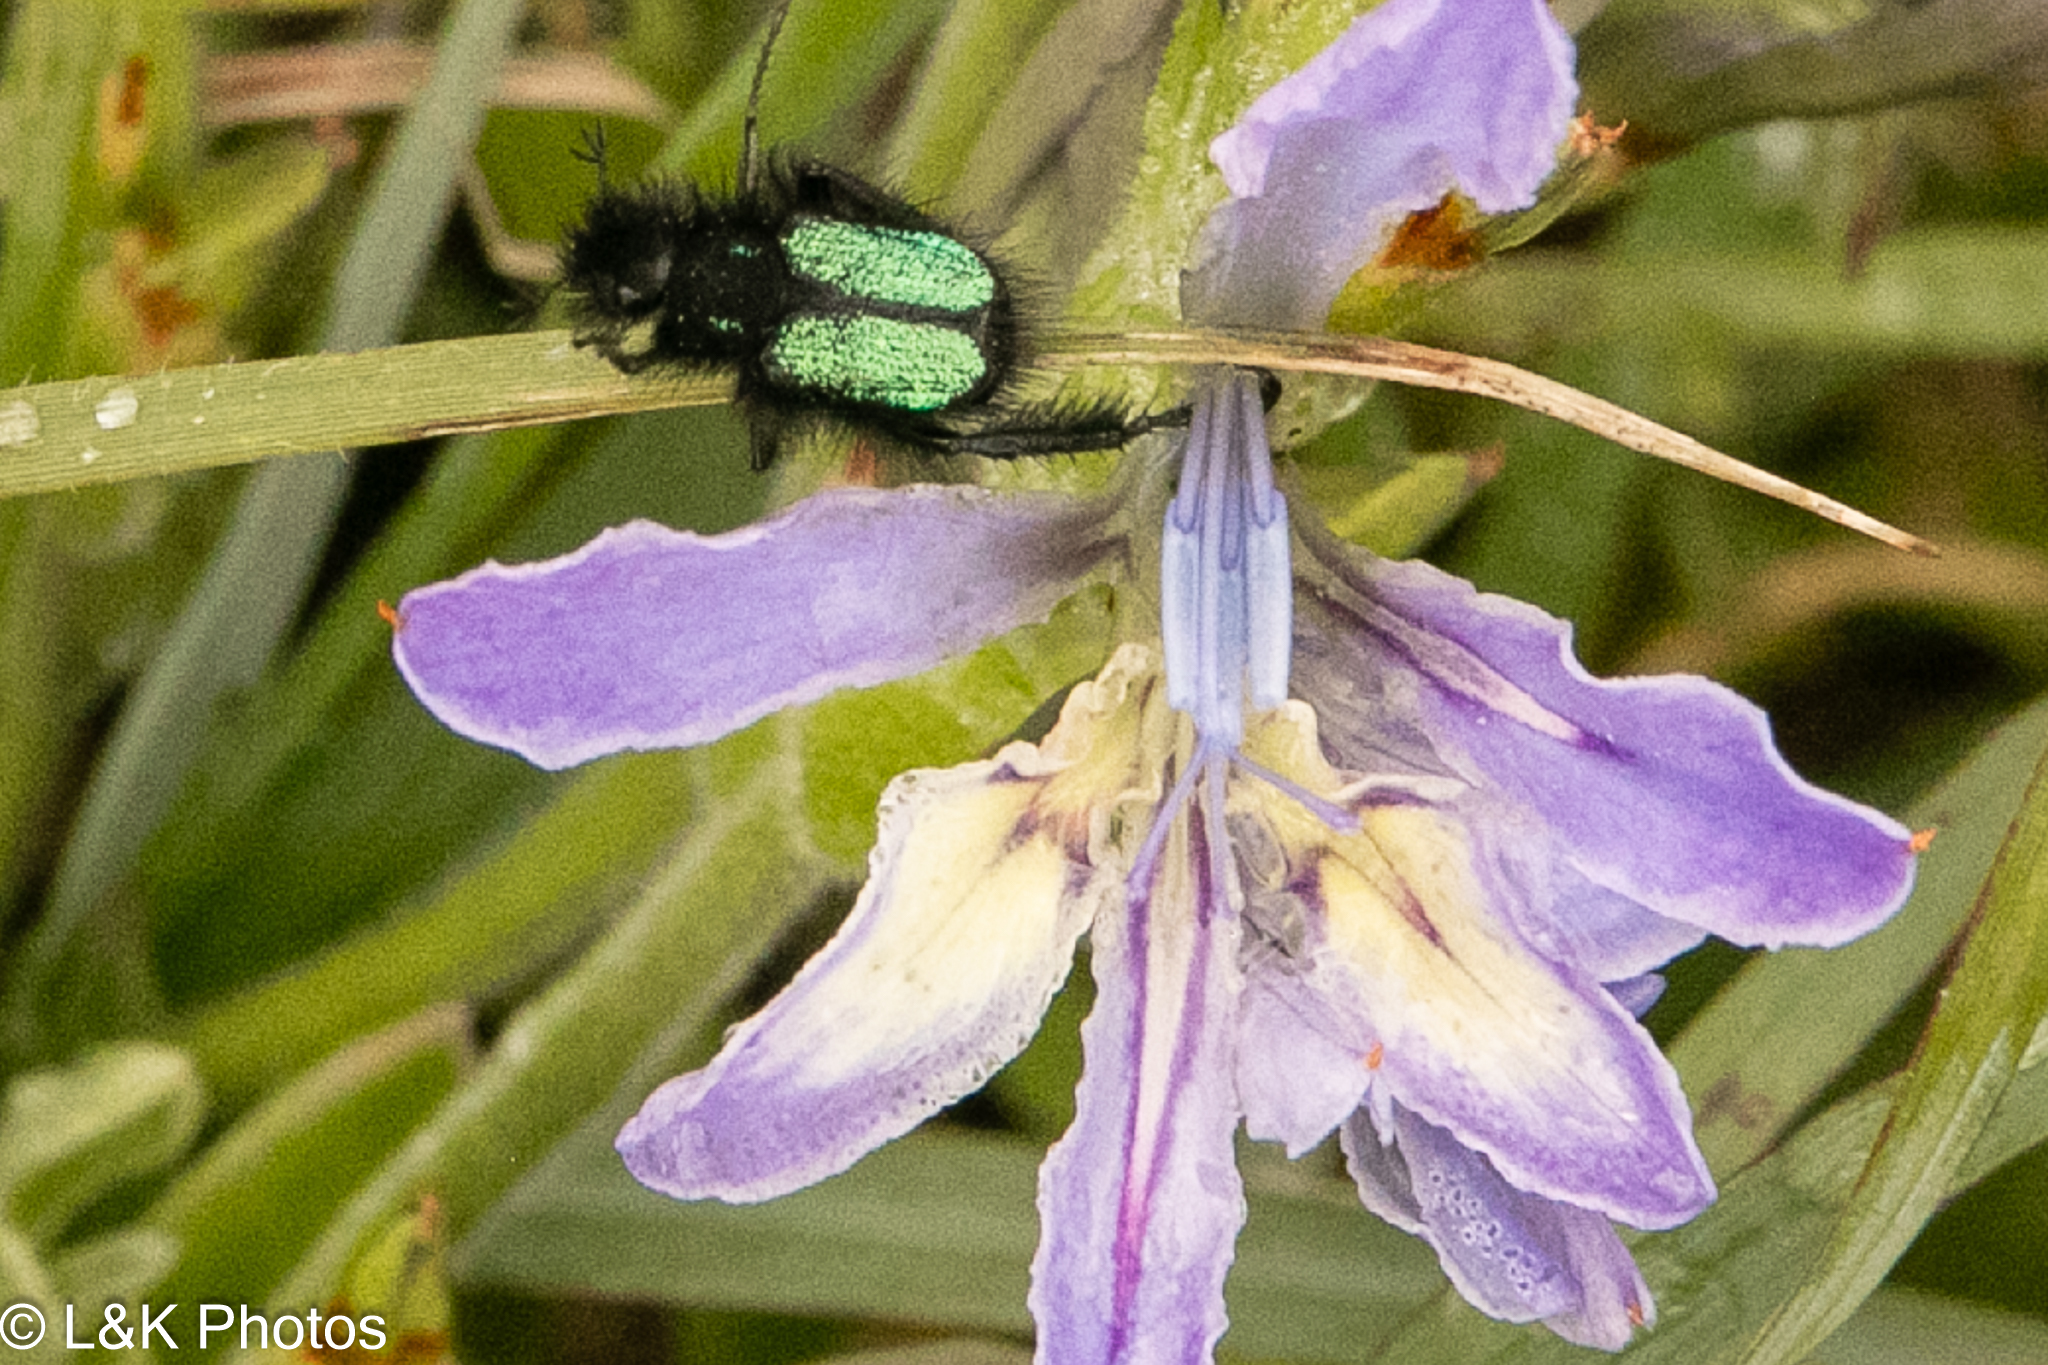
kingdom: Animalia
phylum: Arthropoda
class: Insecta
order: Coleoptera
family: Scarabaeidae
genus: Anisonyx
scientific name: Anisonyx ditus
